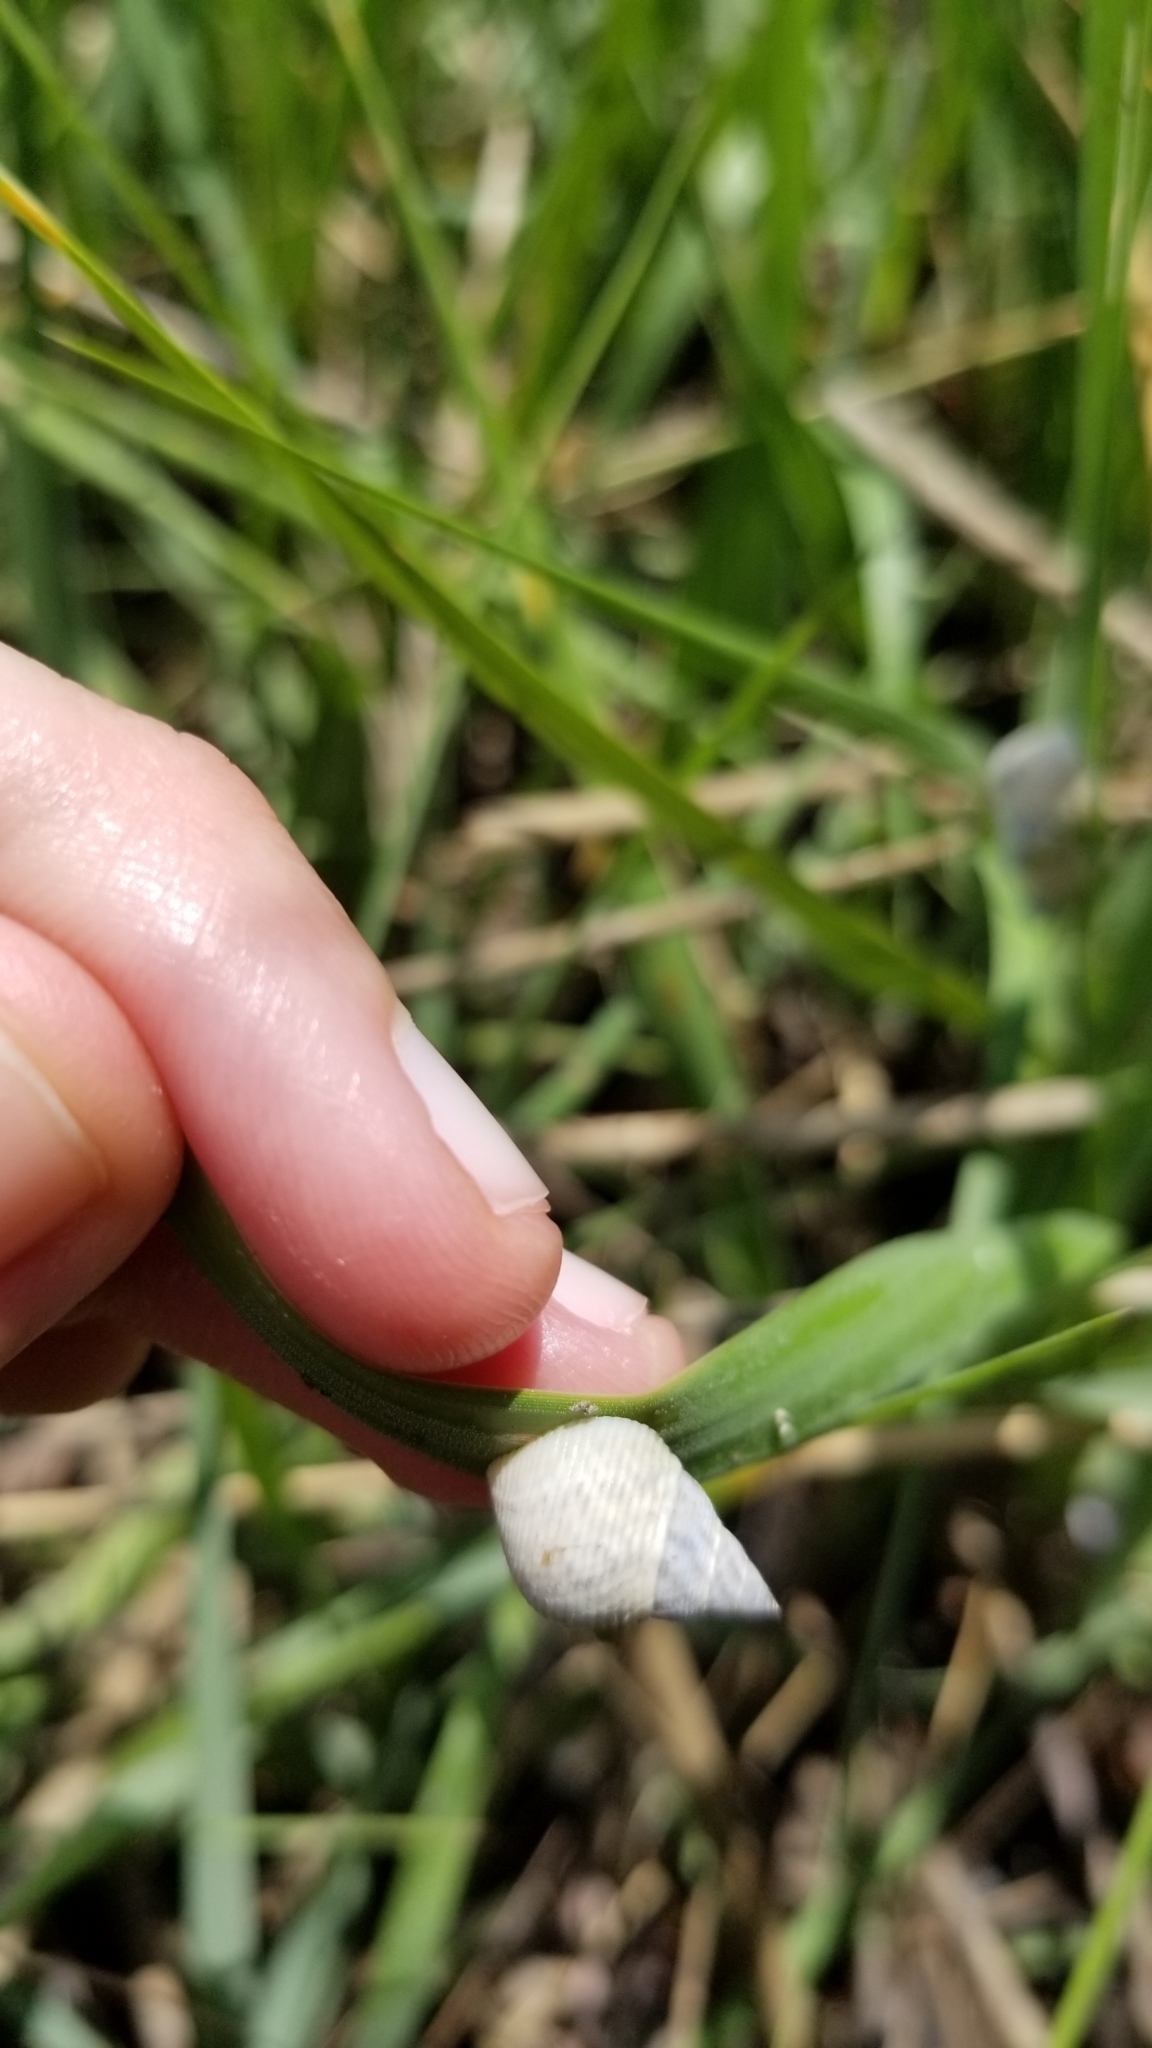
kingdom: Animalia
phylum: Mollusca
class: Gastropoda
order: Littorinimorpha
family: Littorinidae
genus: Littoraria
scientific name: Littoraria irrorata
